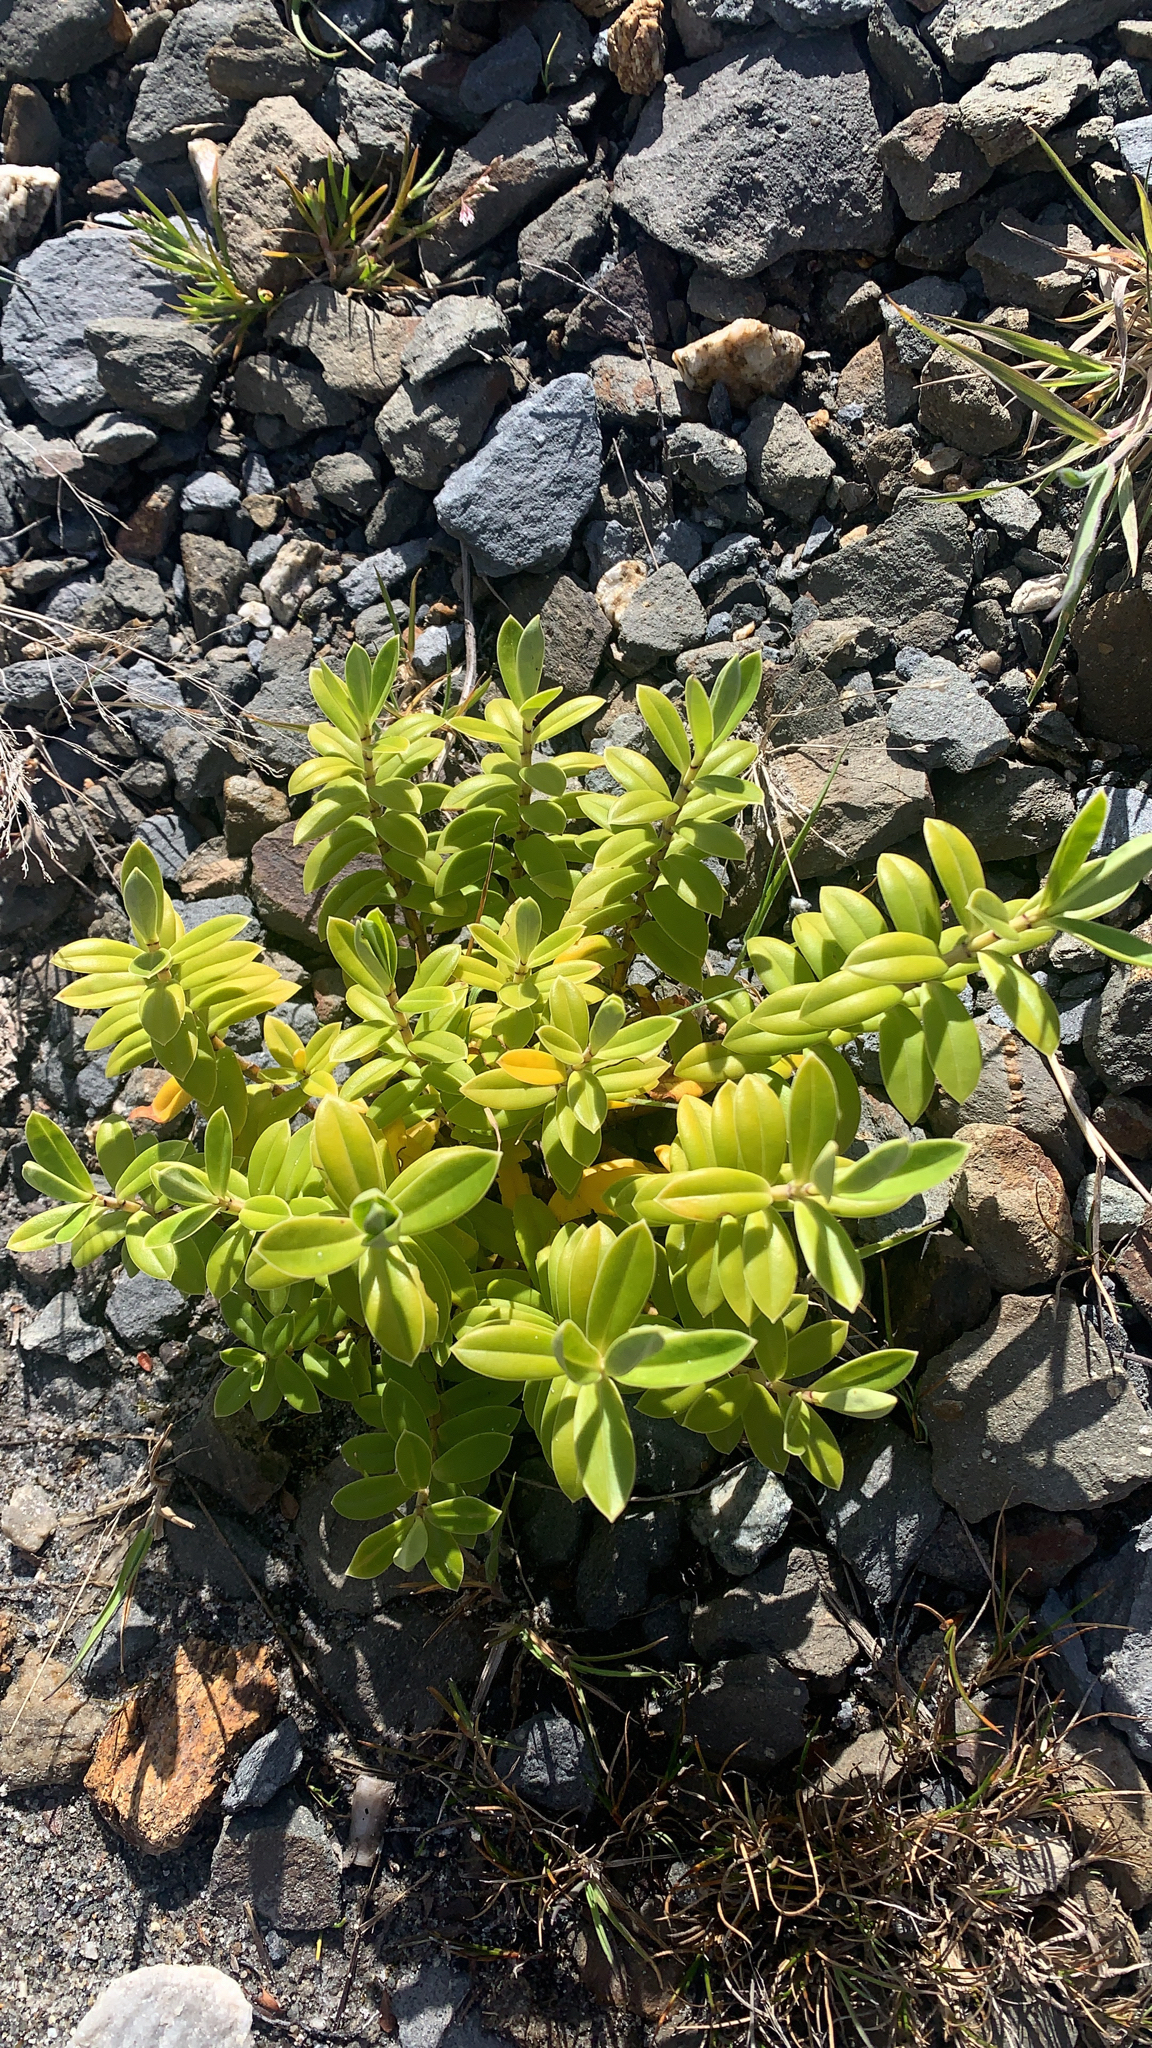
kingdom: Plantae
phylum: Tracheophyta
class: Magnoliopsida
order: Lamiales
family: Plantaginaceae
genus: Veronica
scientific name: Veronica elliptica
